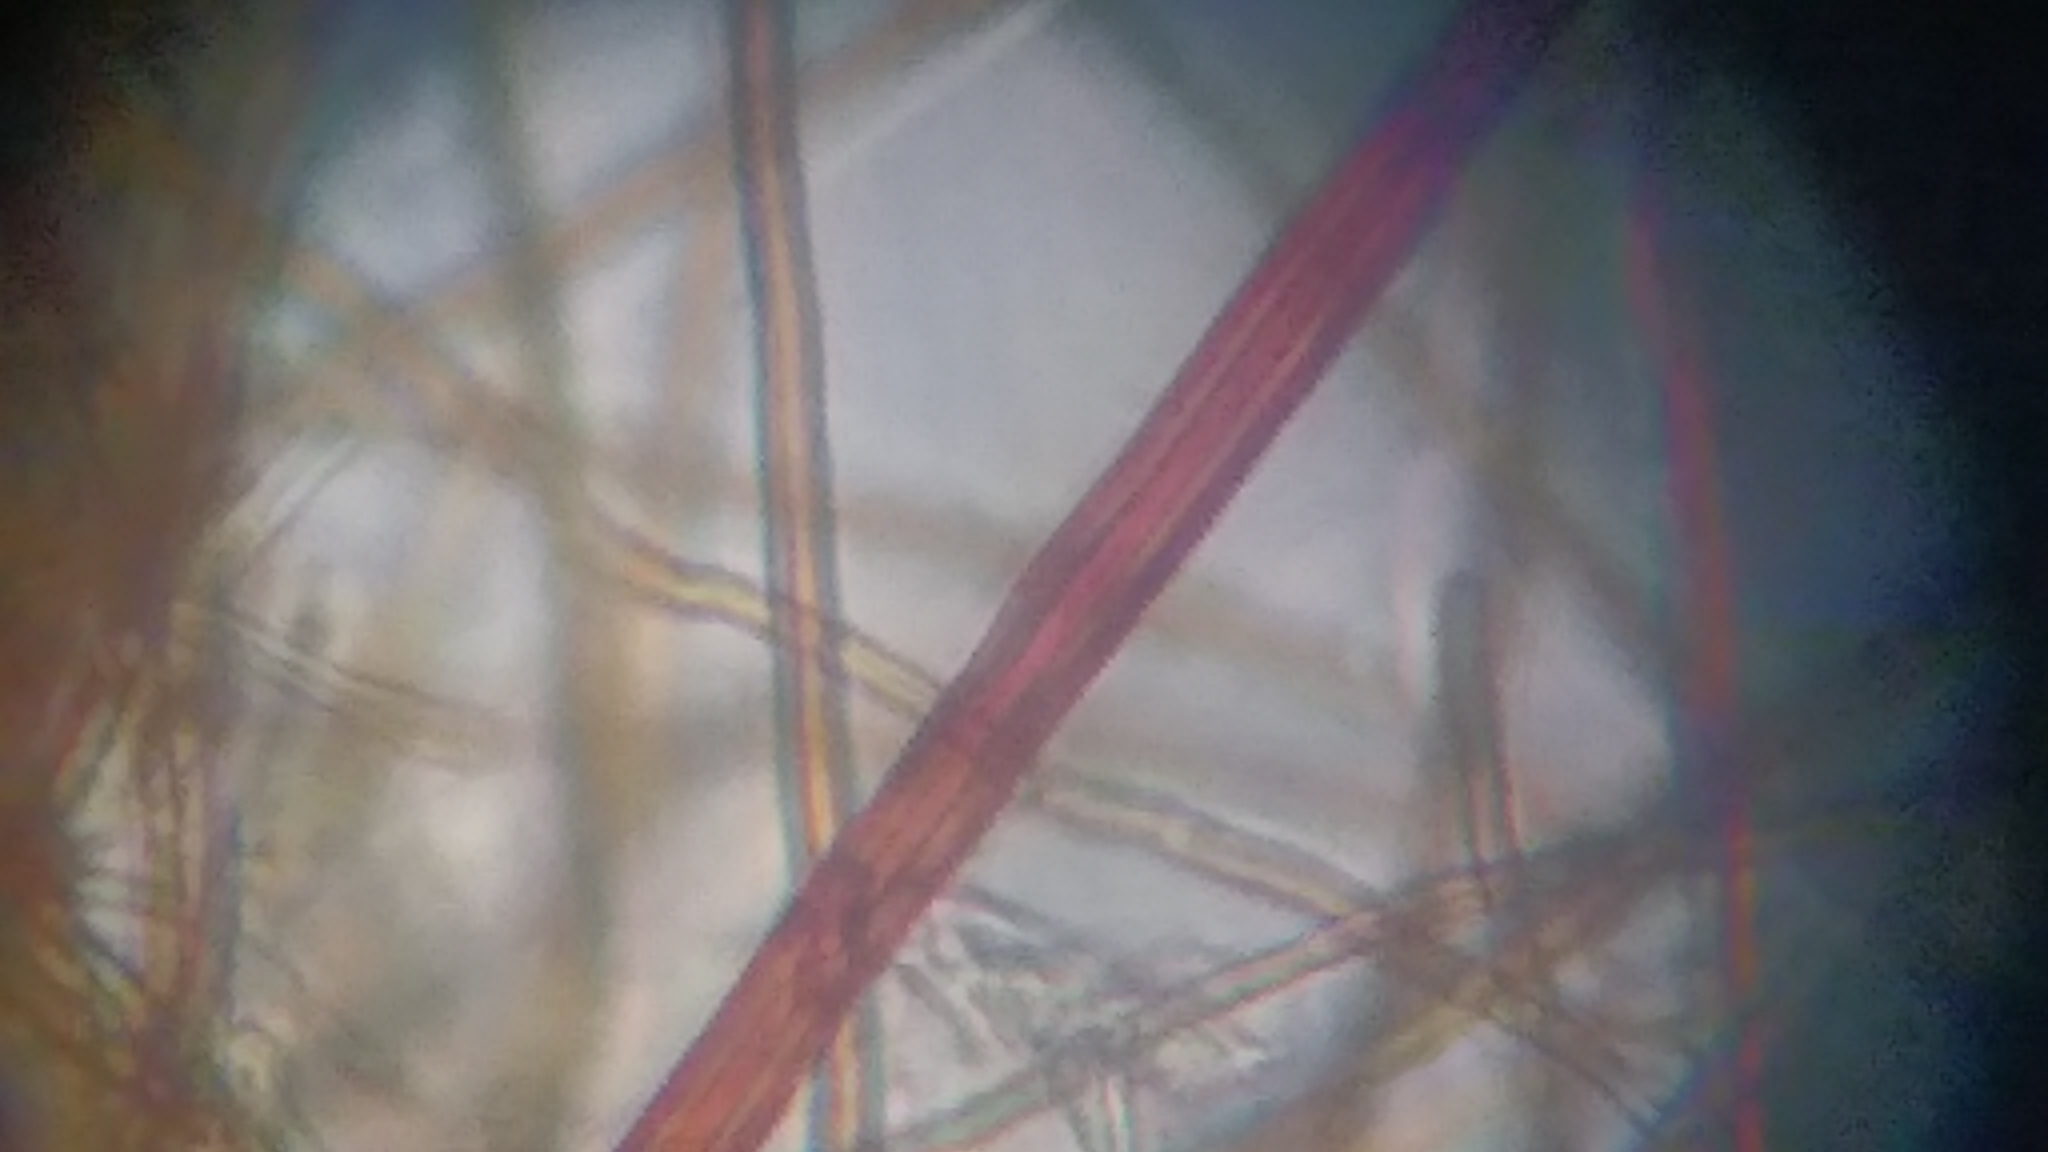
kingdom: Fungi
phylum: Basidiomycota
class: Agaricomycetes
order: Hymenochaetales
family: Hymenochaetaceae
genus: Fuscoporia
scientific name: Fuscoporia ferruginosa
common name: Rusty porecrust
